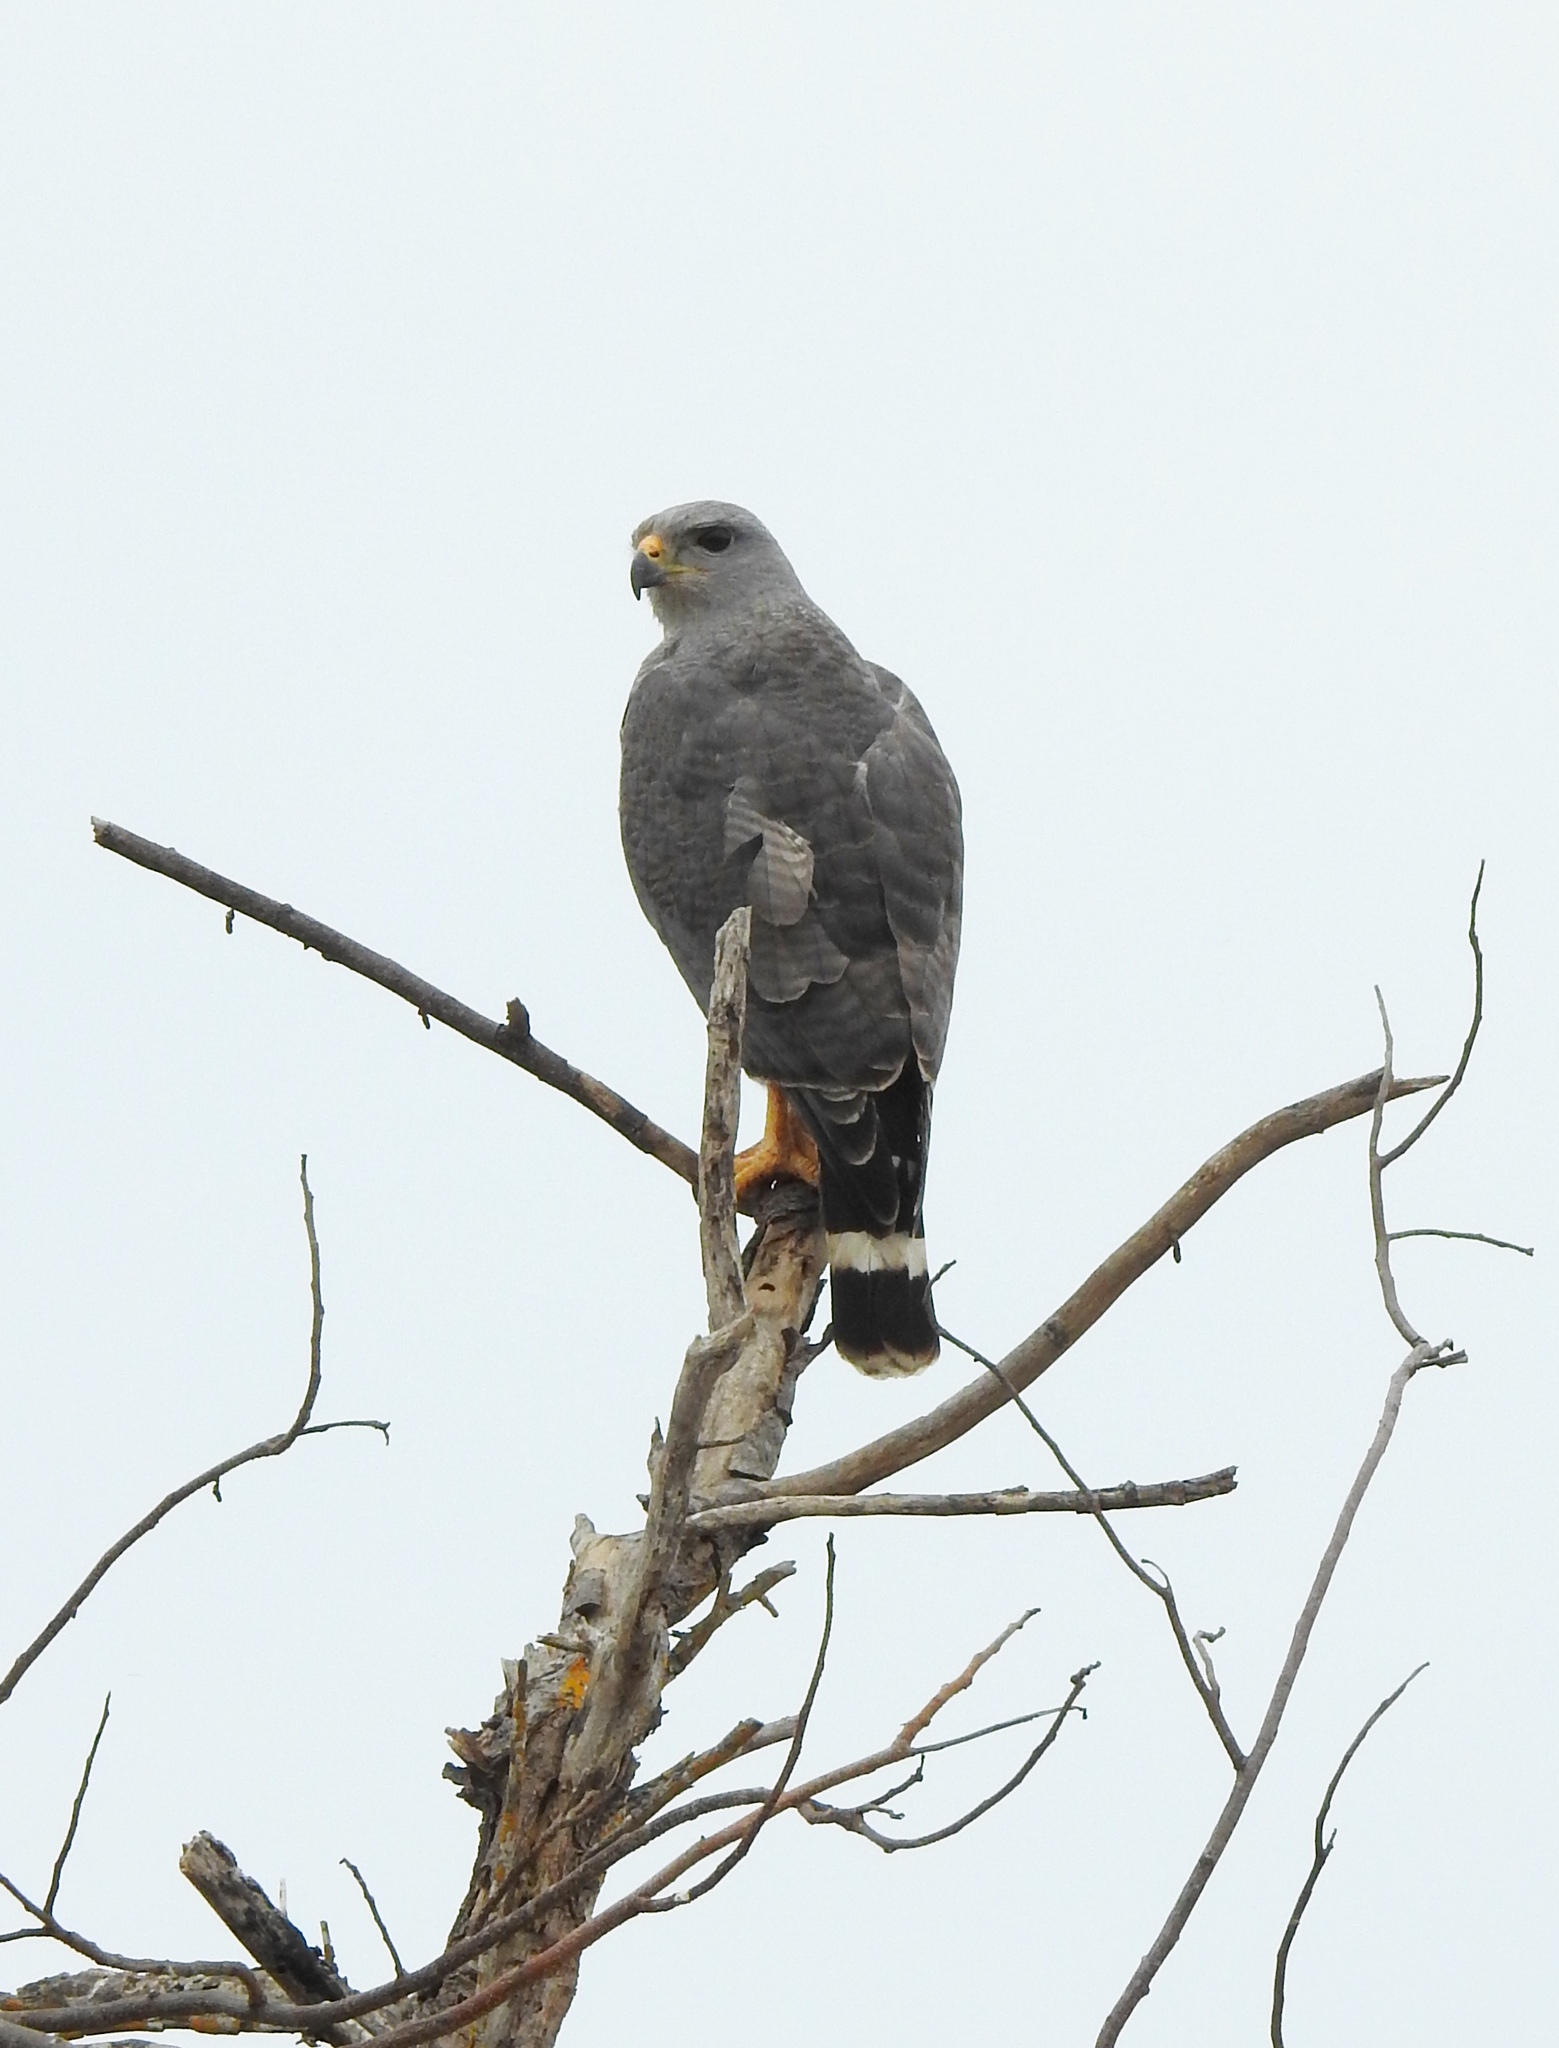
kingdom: Animalia
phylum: Chordata
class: Aves
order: Accipitriformes
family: Accipitridae
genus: Buteo
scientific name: Buteo nitidus
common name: Grey-lined hawk
